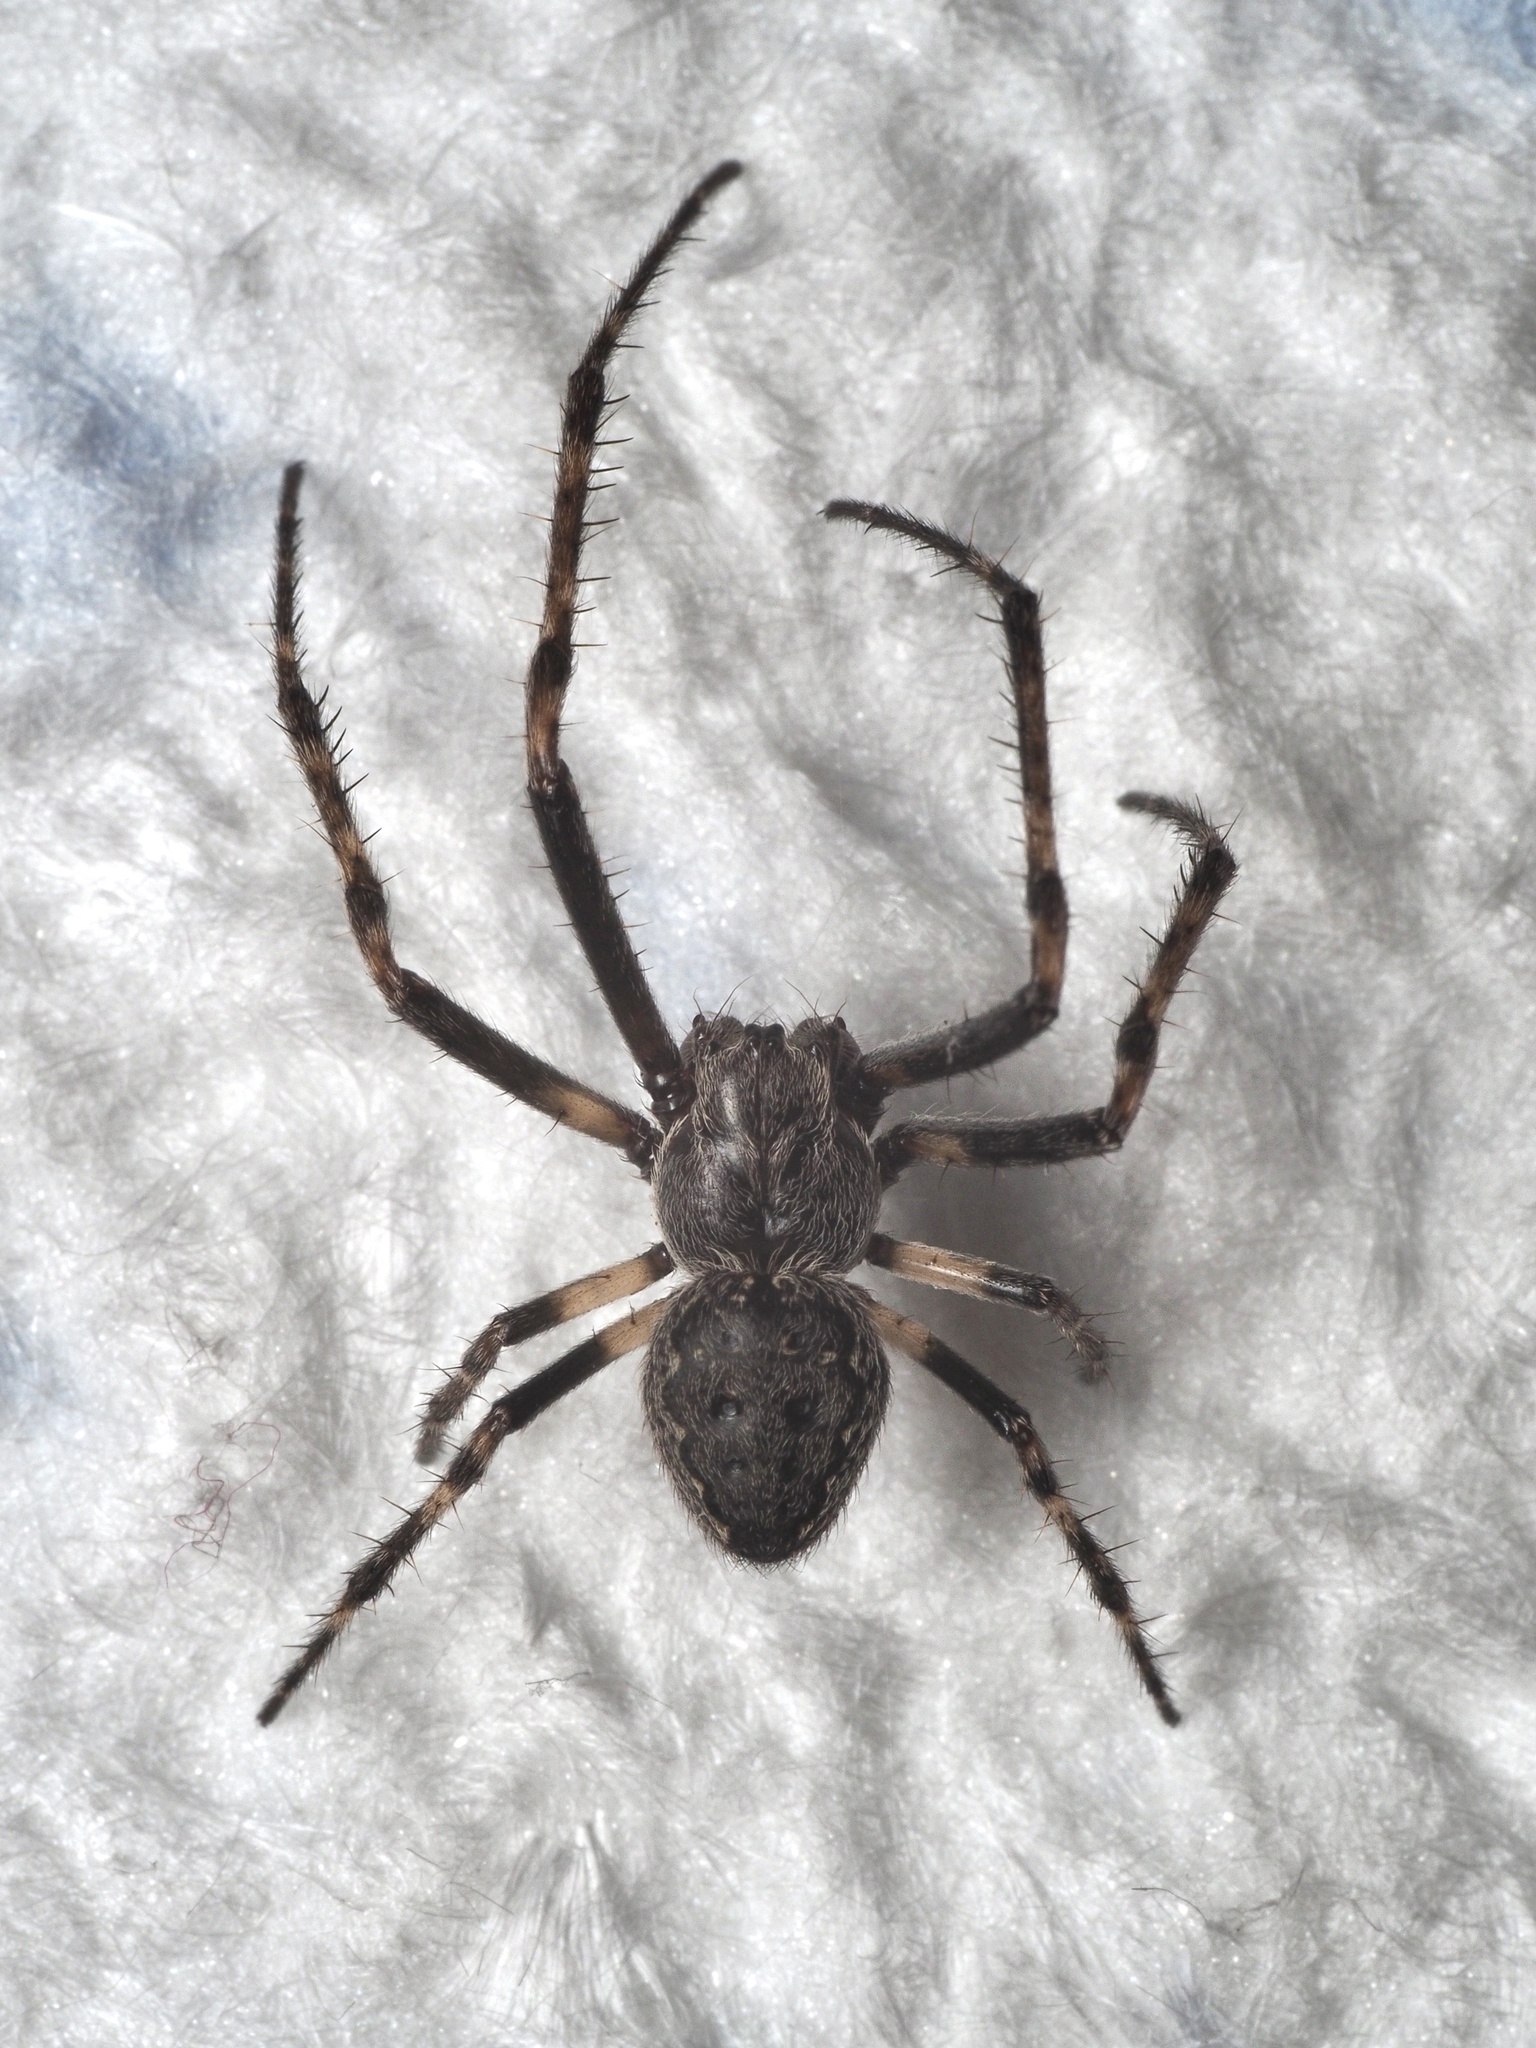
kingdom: Animalia
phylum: Arthropoda
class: Arachnida
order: Araneae
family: Araneidae
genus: Nuctenea
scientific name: Nuctenea umbratica
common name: Toad spider
